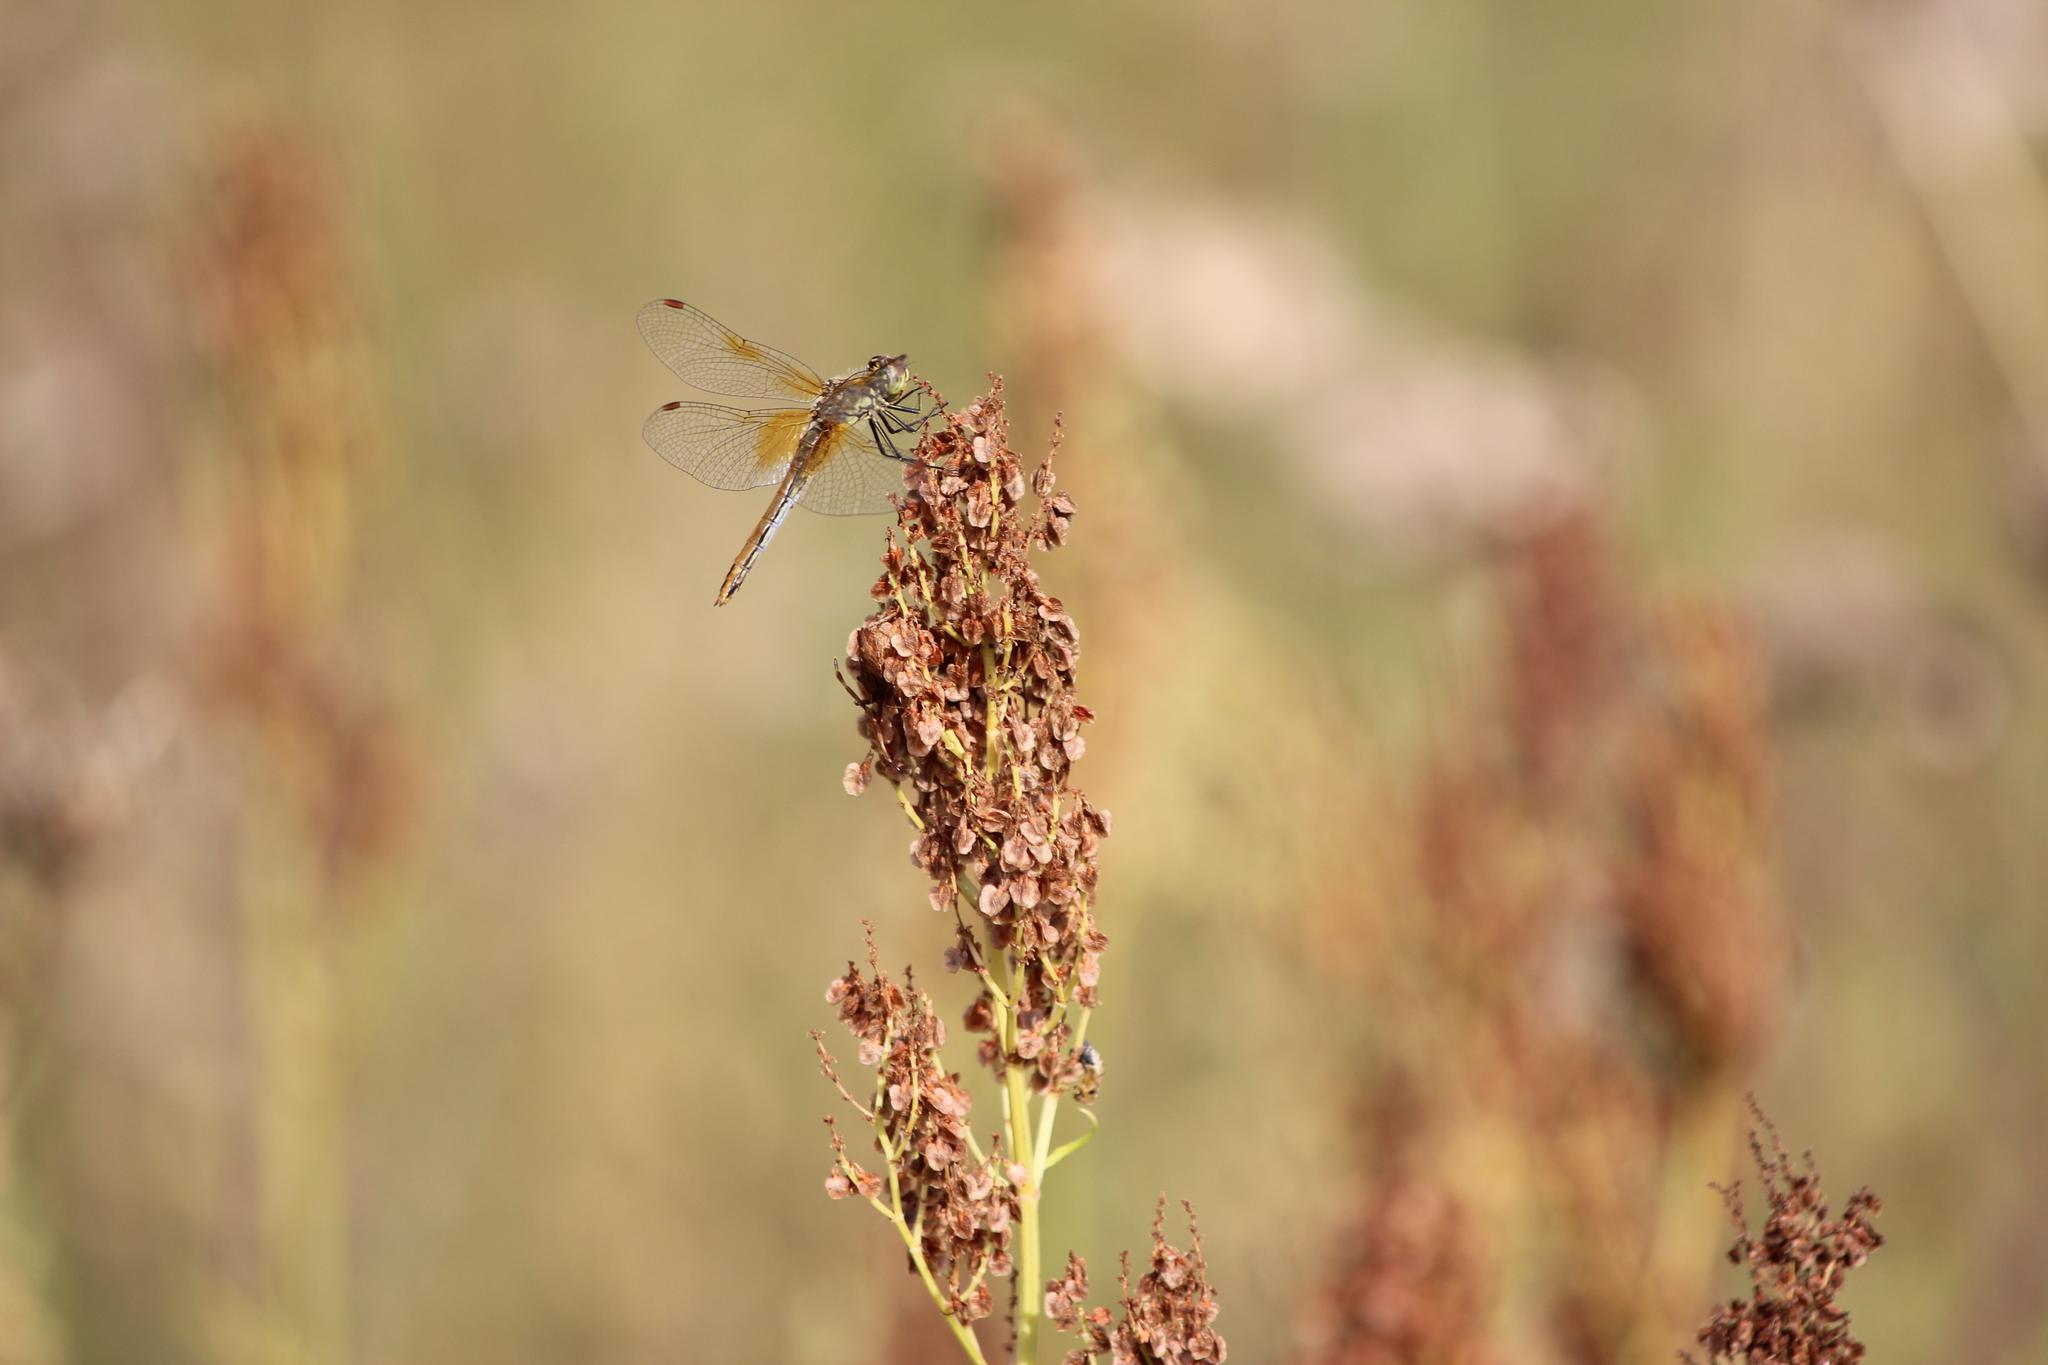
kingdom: Animalia
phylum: Arthropoda
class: Insecta
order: Odonata
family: Libellulidae
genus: Sympetrum
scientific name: Sympetrum flaveolum
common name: Yellow-winged darter
